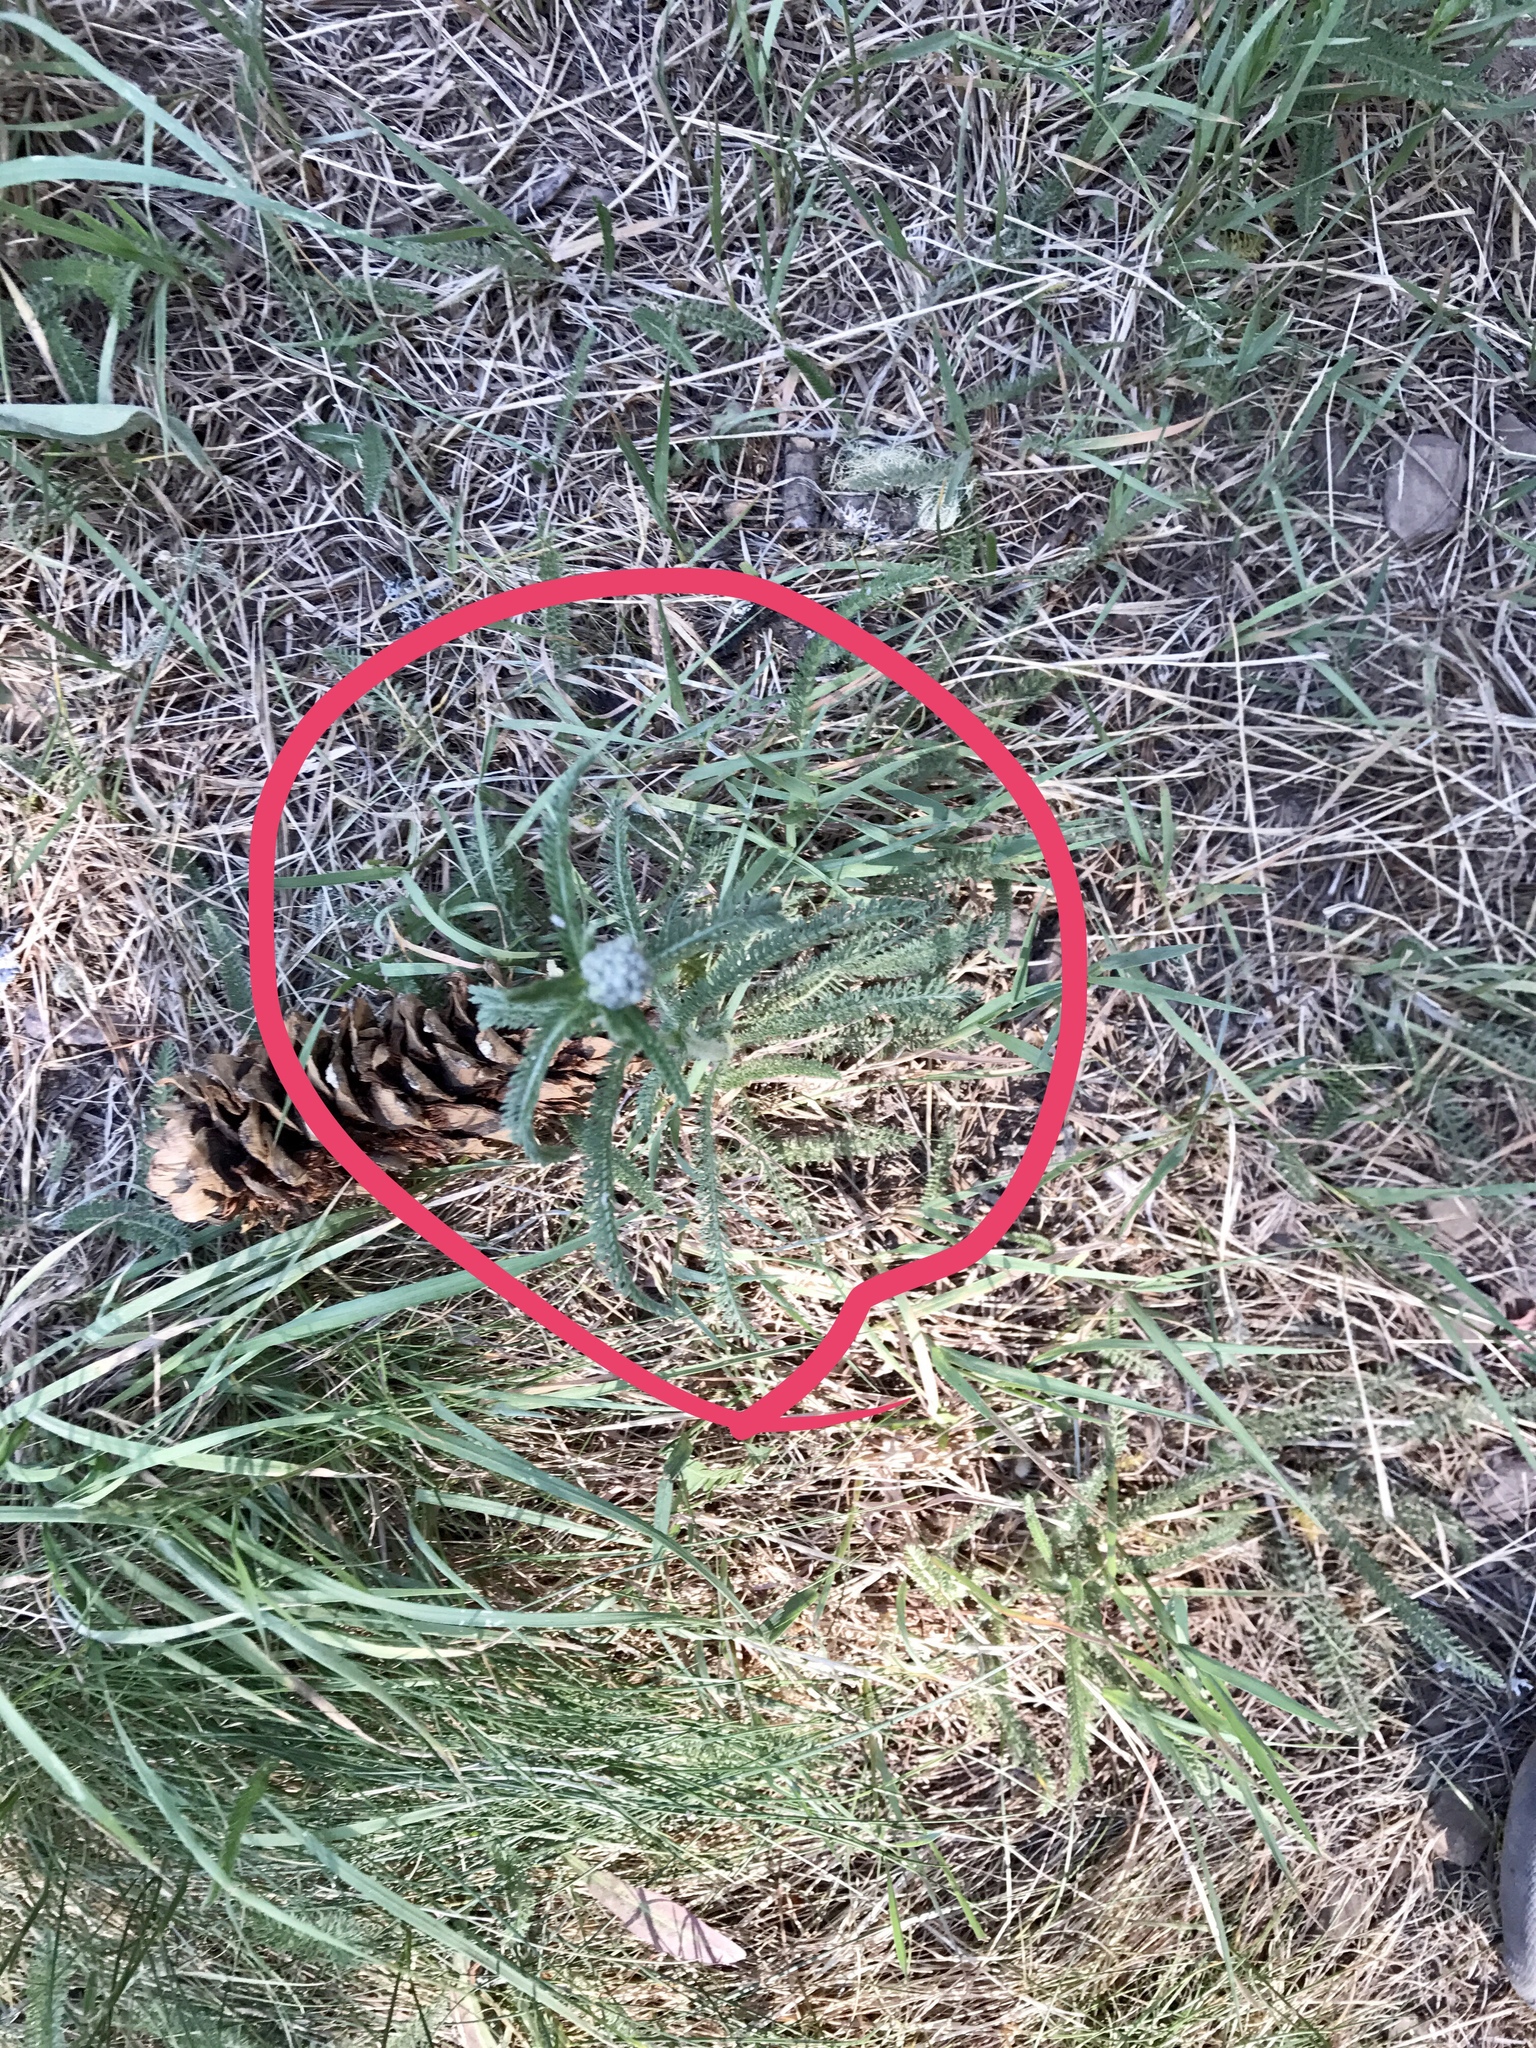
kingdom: Plantae
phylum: Tracheophyta
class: Magnoliopsida
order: Asterales
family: Asteraceae
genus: Achillea
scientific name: Achillea millefolium
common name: Yarrow
